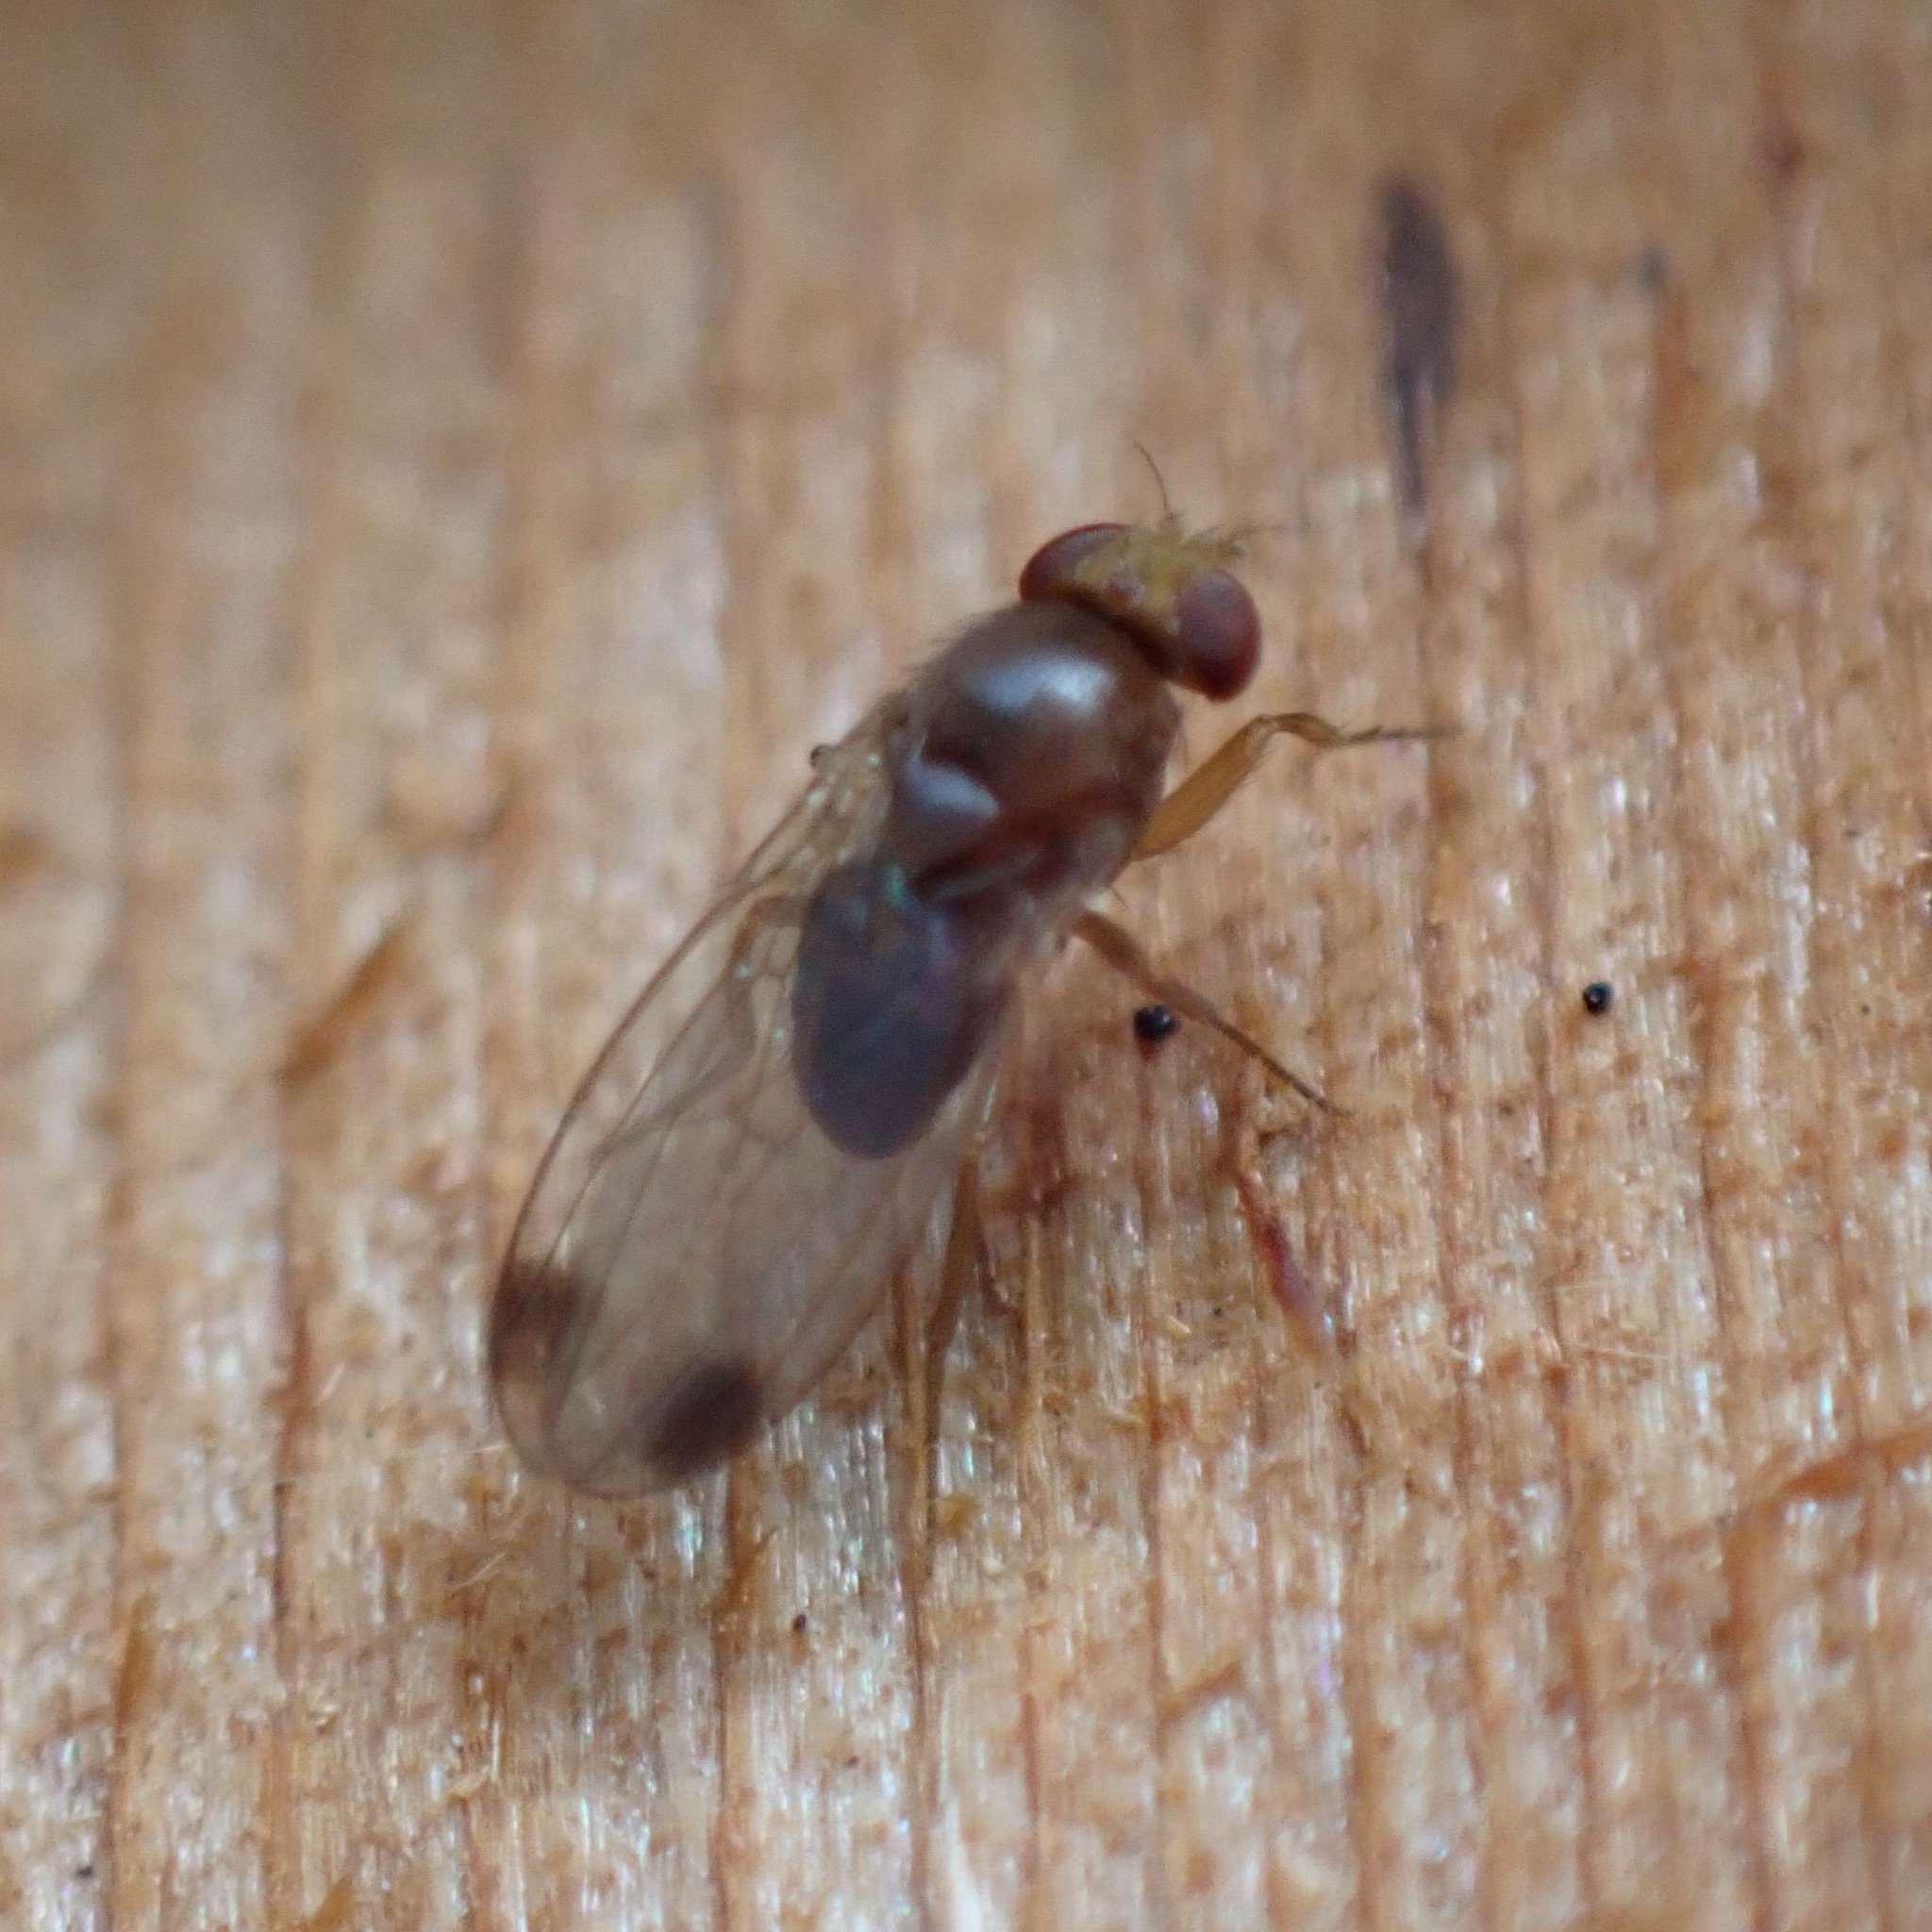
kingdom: Animalia
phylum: Arthropoda
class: Insecta
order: Diptera
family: Drosophilidae
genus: Drosophila
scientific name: Drosophila suzukii
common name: Spotted-wing drosophila
